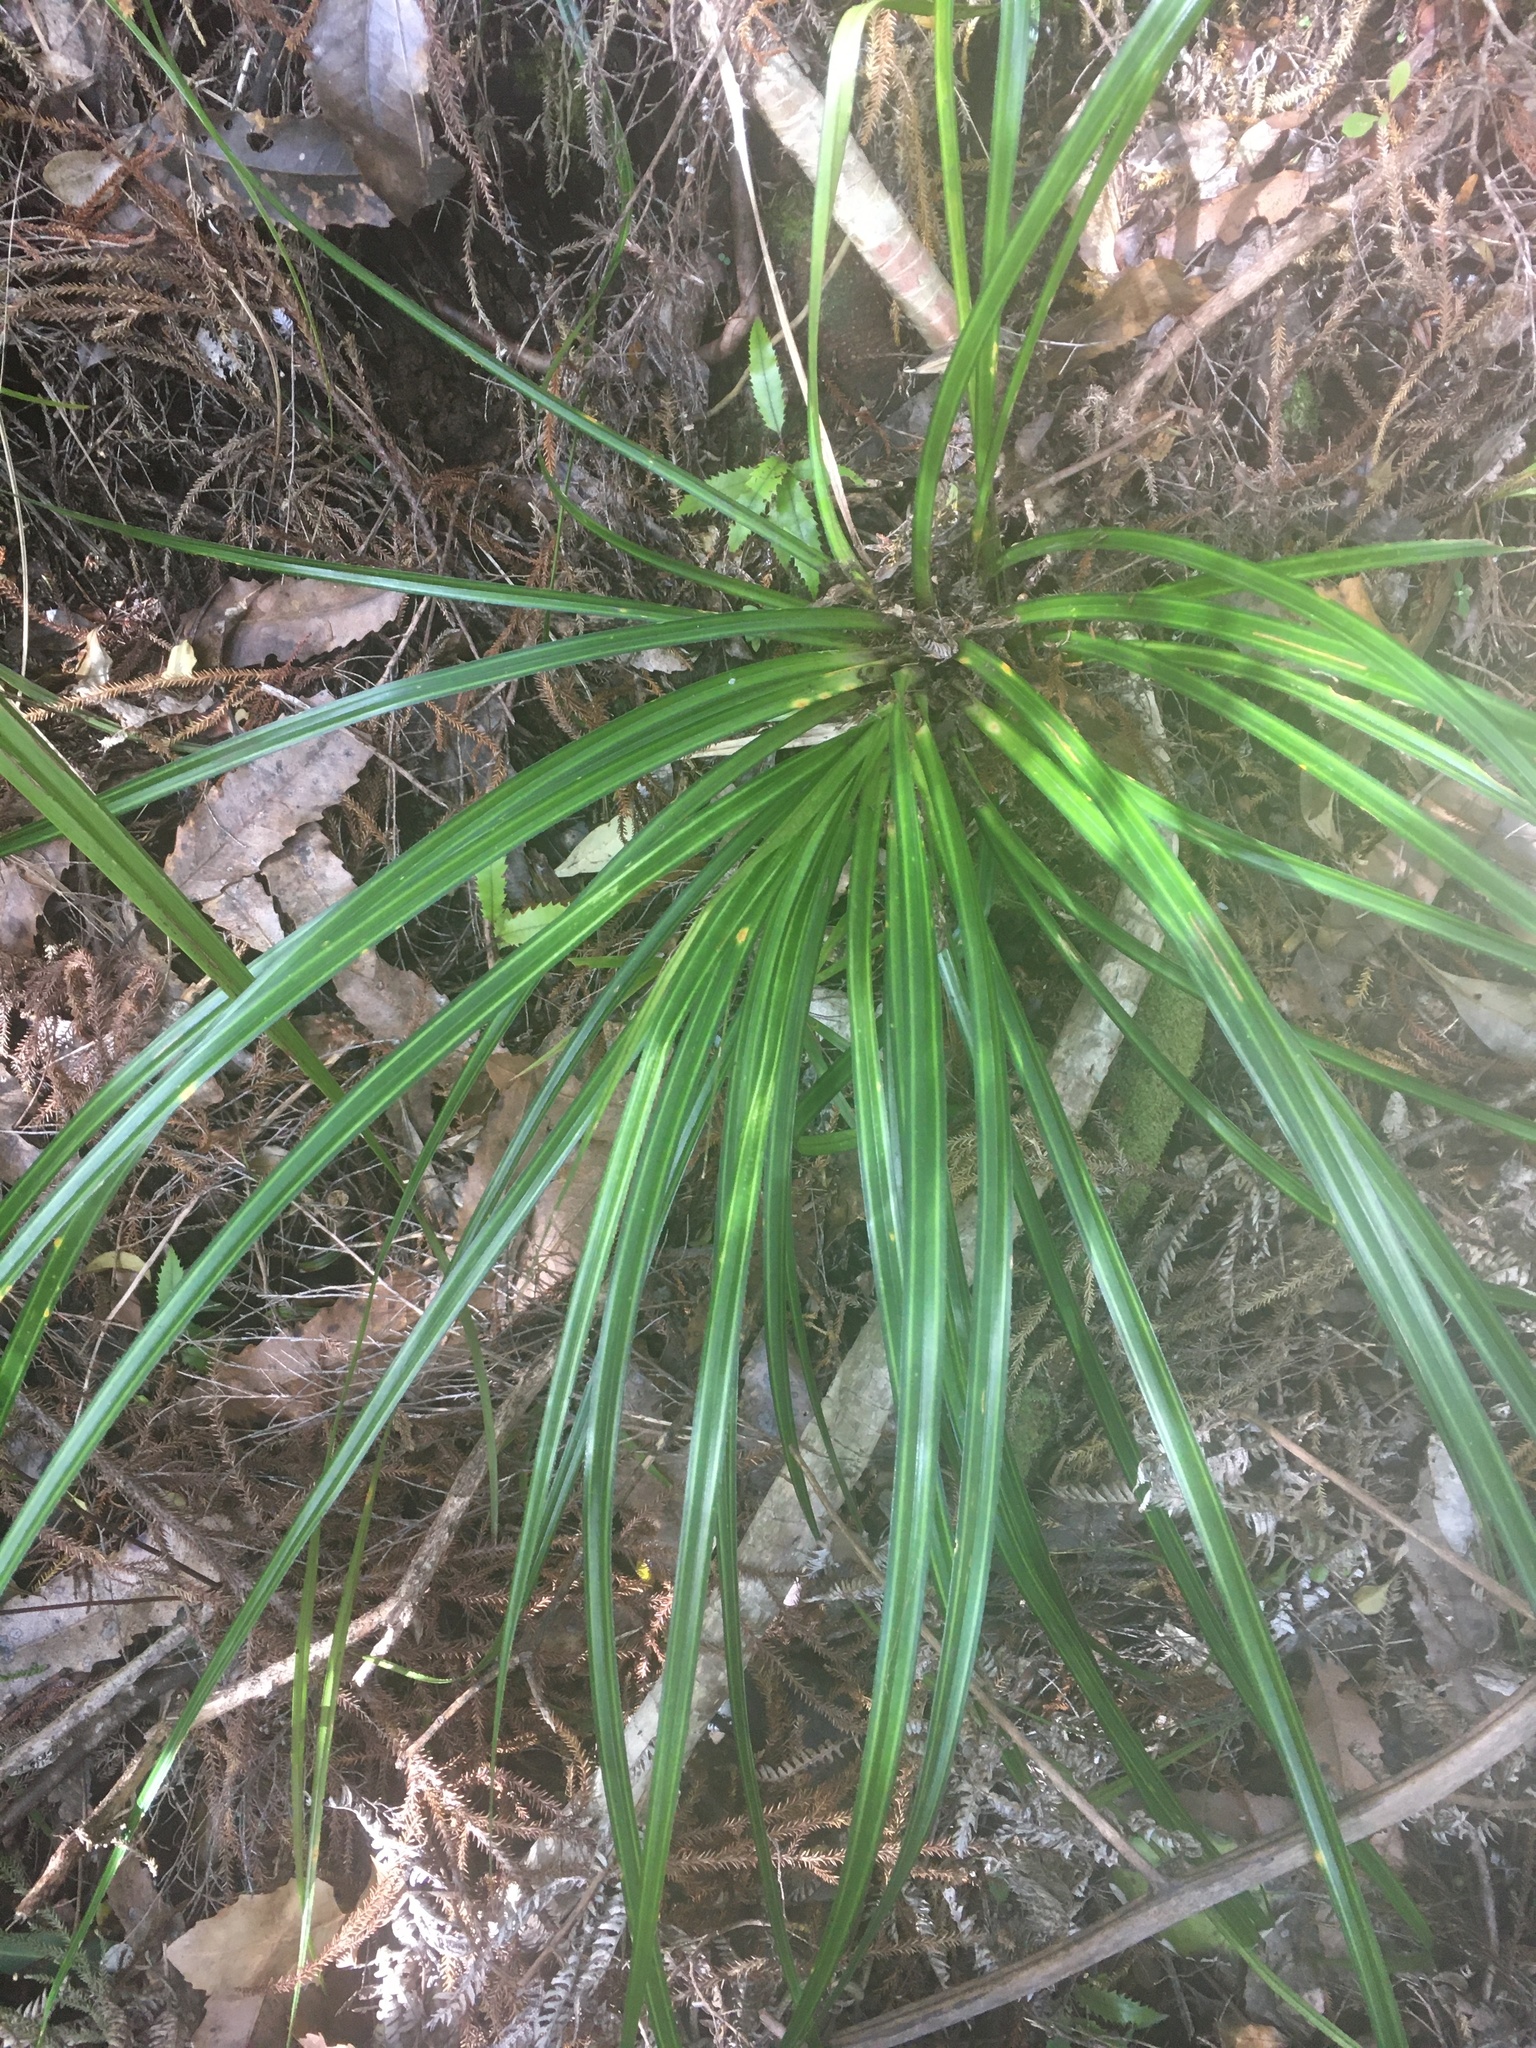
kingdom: Plantae
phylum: Tracheophyta
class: Liliopsida
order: Pandanales
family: Pandanaceae
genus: Freycinetia
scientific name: Freycinetia banksii
